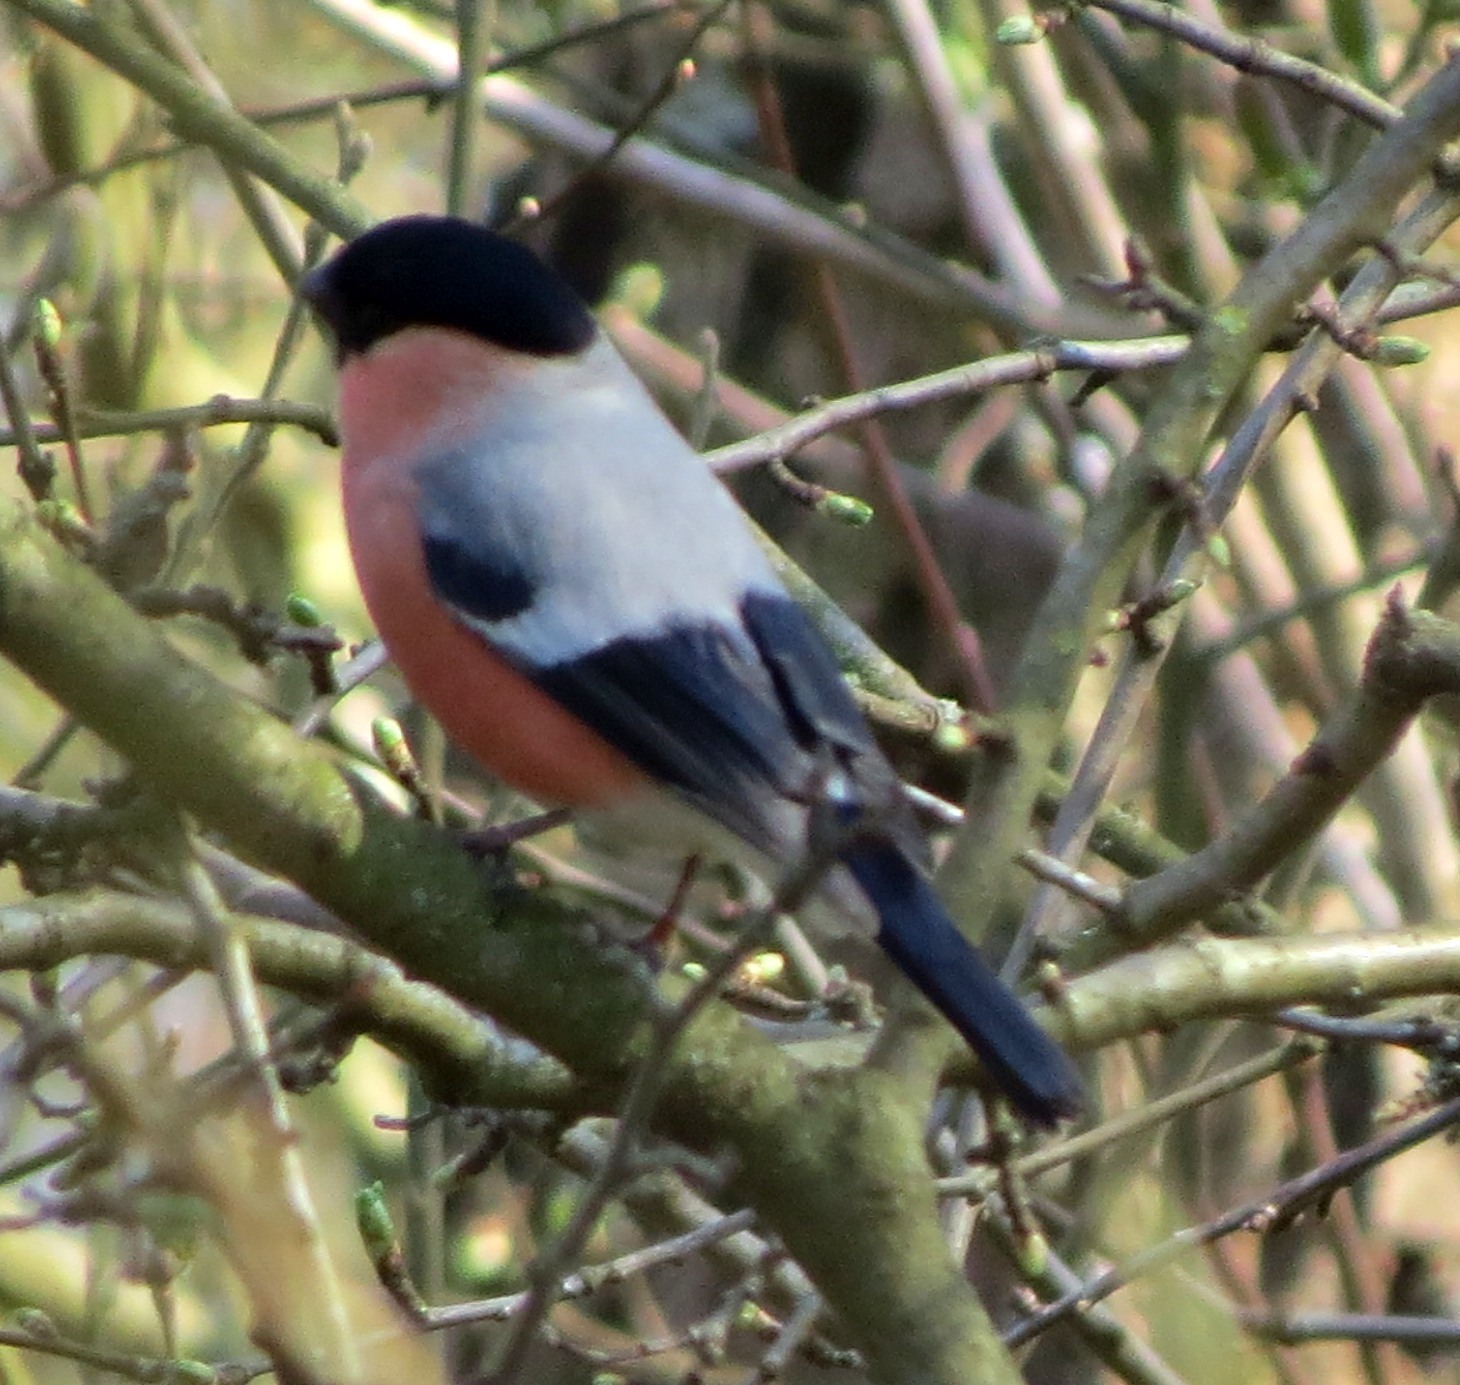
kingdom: Animalia
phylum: Chordata
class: Aves
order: Passeriformes
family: Fringillidae
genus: Pyrrhula
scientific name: Pyrrhula pyrrhula
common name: Eurasian bullfinch
